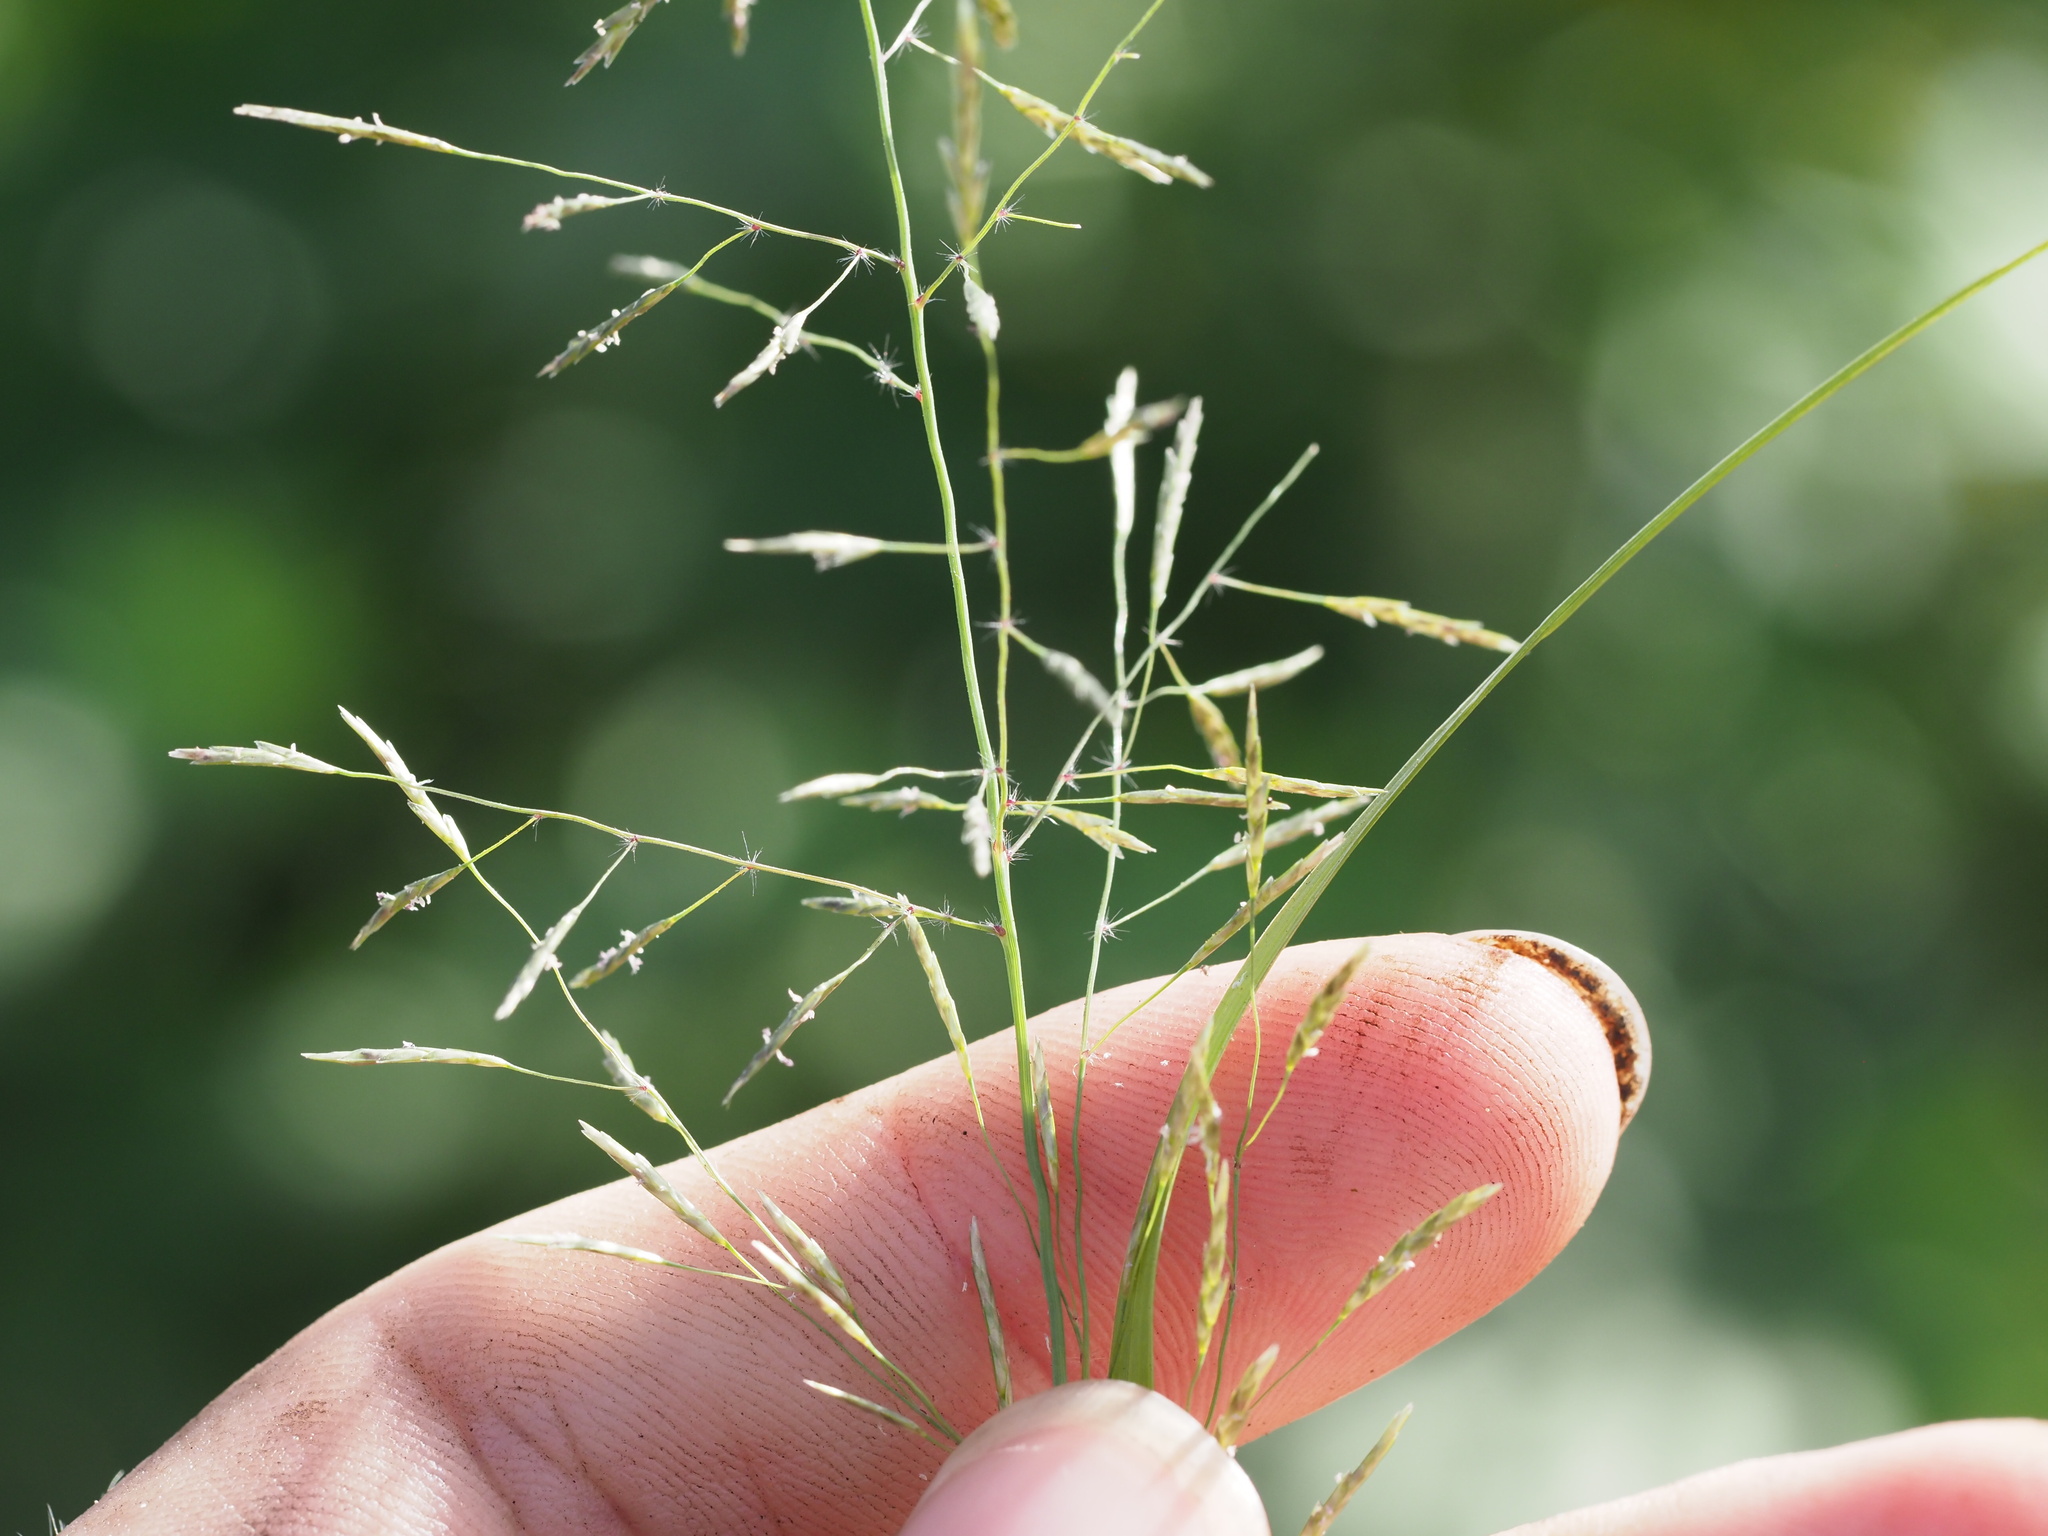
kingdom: Plantae
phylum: Tracheophyta
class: Liliopsida
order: Poales
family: Poaceae
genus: Eragrostis
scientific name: Eragrostis tenuifolia
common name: Elastic grass
